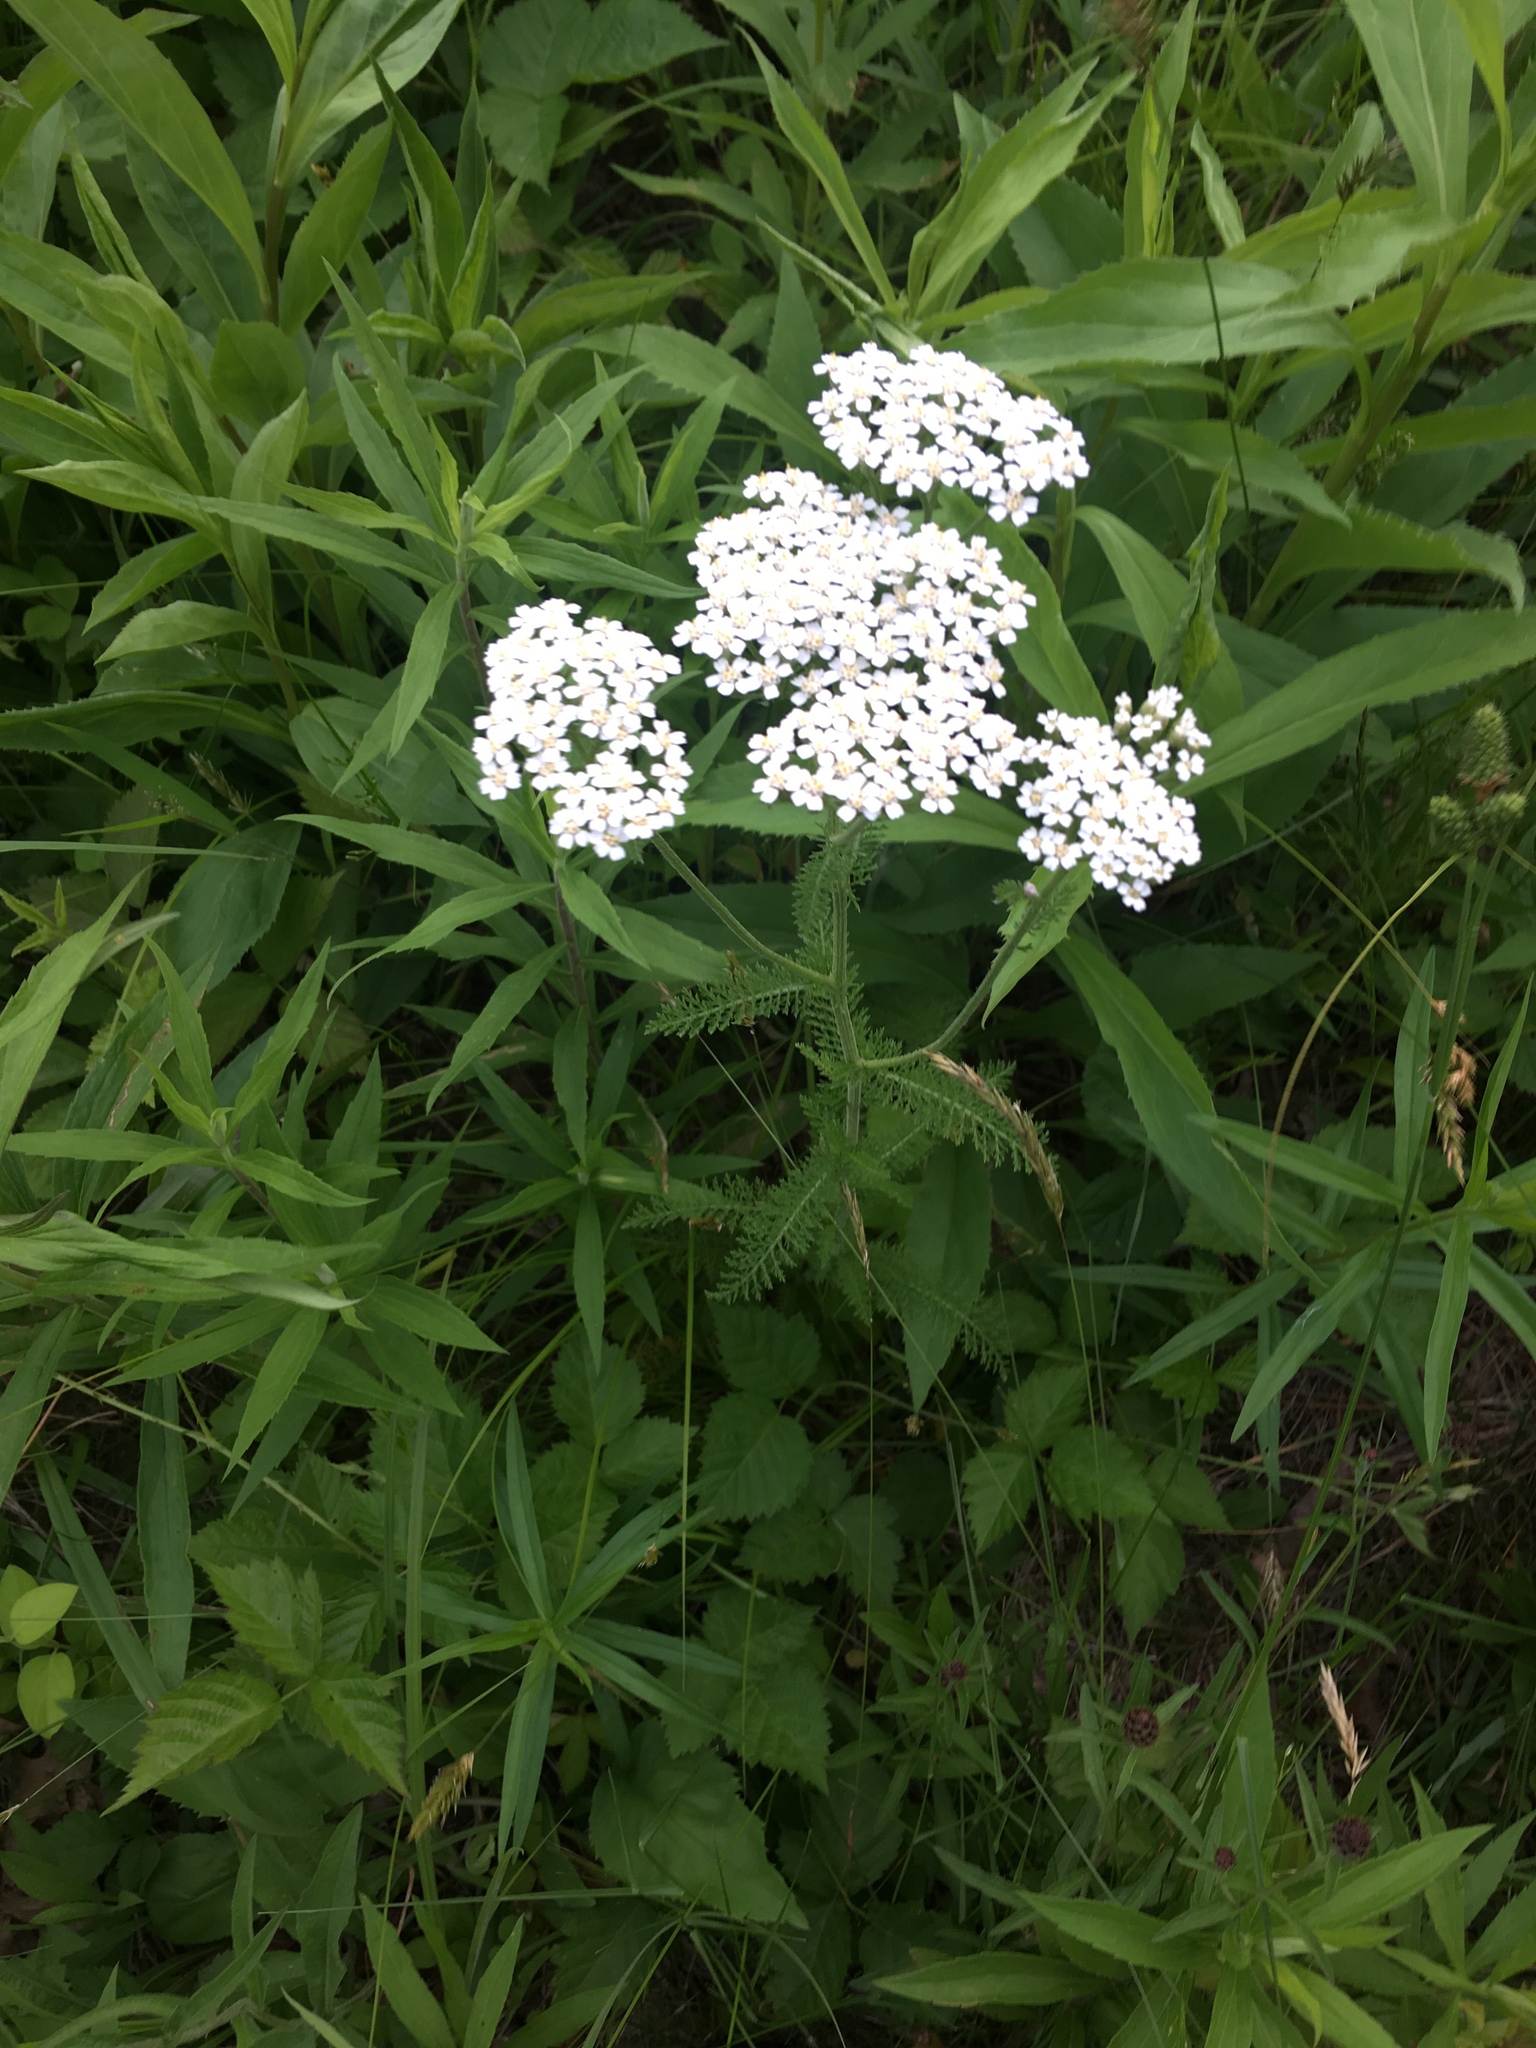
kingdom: Plantae
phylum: Tracheophyta
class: Magnoliopsida
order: Asterales
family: Asteraceae
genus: Achillea
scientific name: Achillea millefolium
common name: Yarrow
